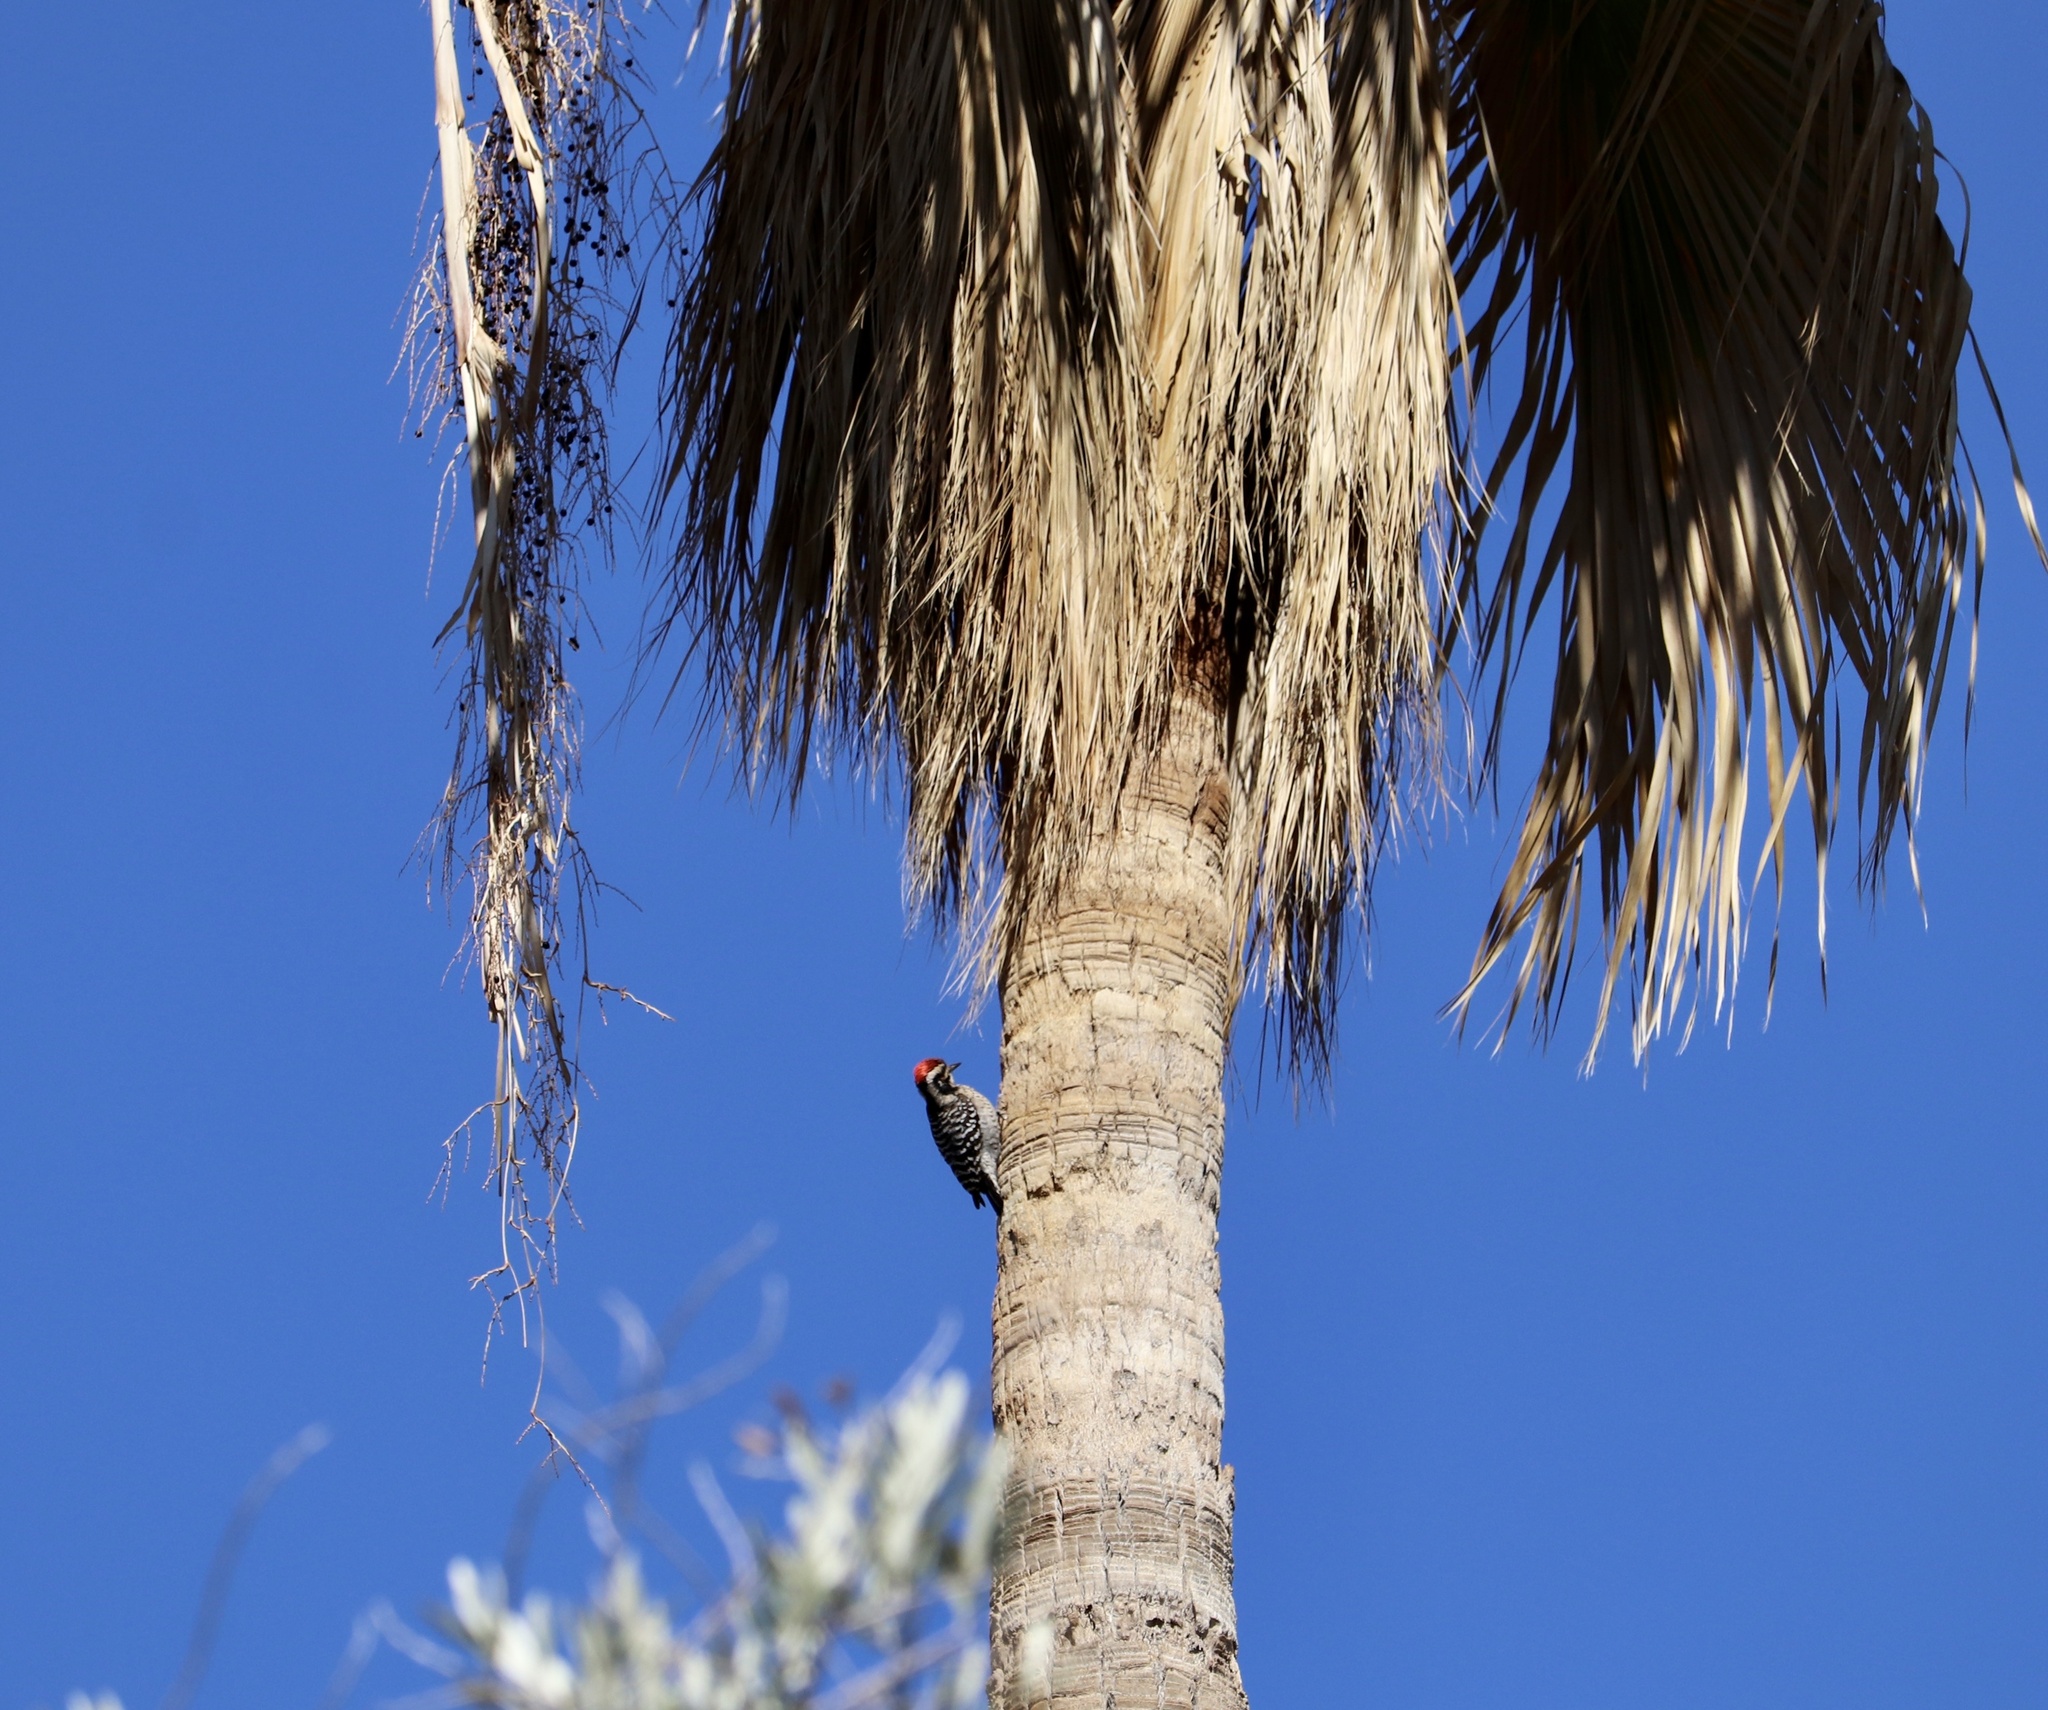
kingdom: Animalia
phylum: Chordata
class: Aves
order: Piciformes
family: Picidae
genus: Dryobates
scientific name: Dryobates scalaris
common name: Ladder-backed woodpecker
